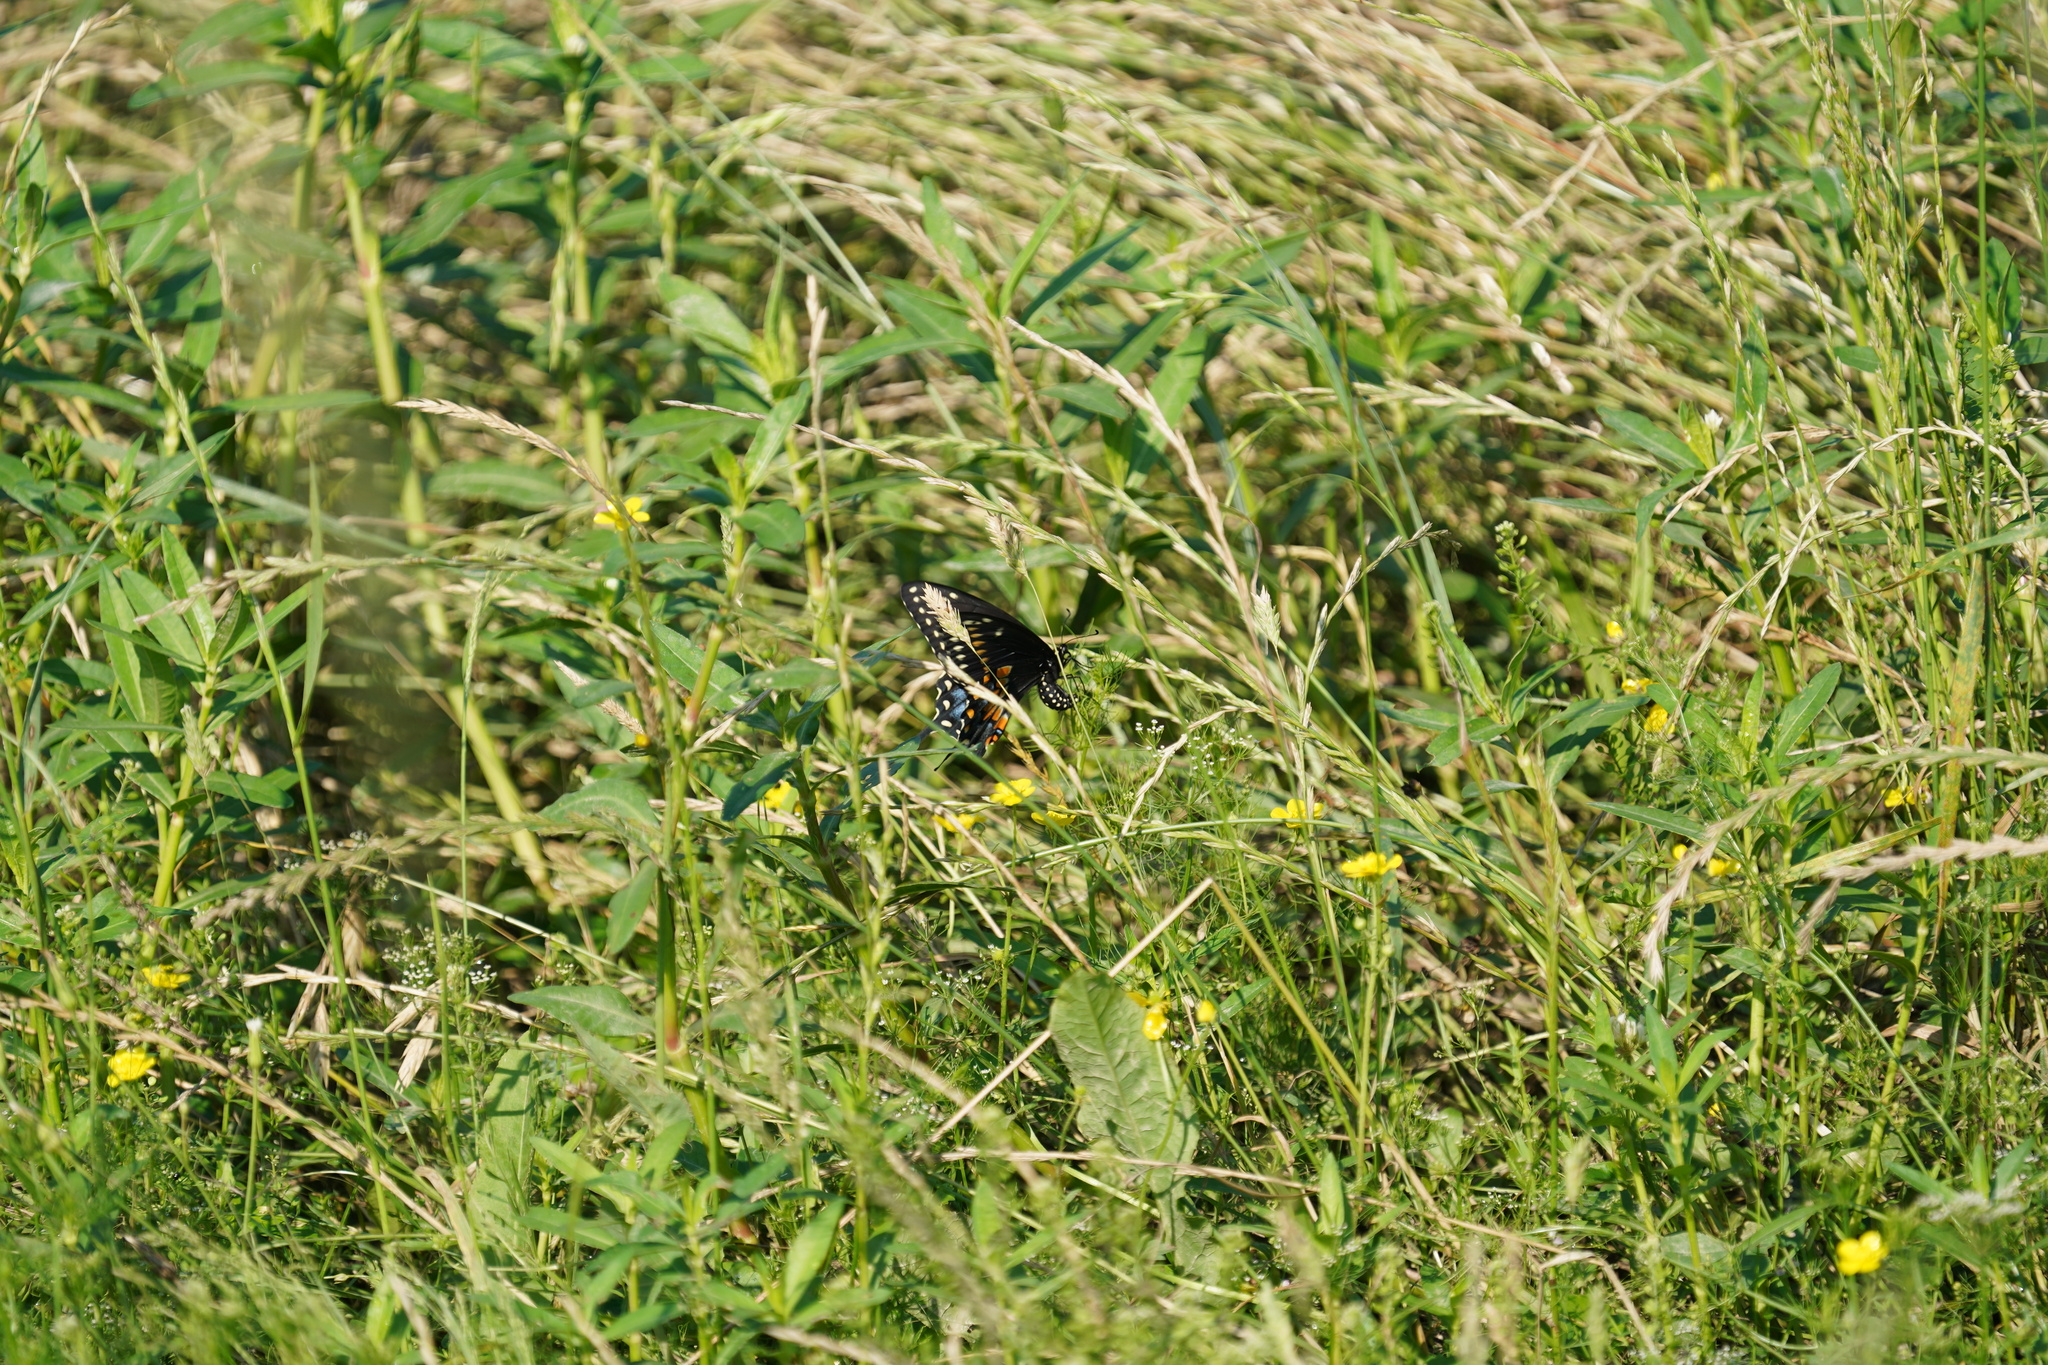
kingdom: Animalia
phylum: Arthropoda
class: Insecta
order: Lepidoptera
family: Papilionidae
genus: Papilio
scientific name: Papilio polyxenes
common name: Black swallowtail
